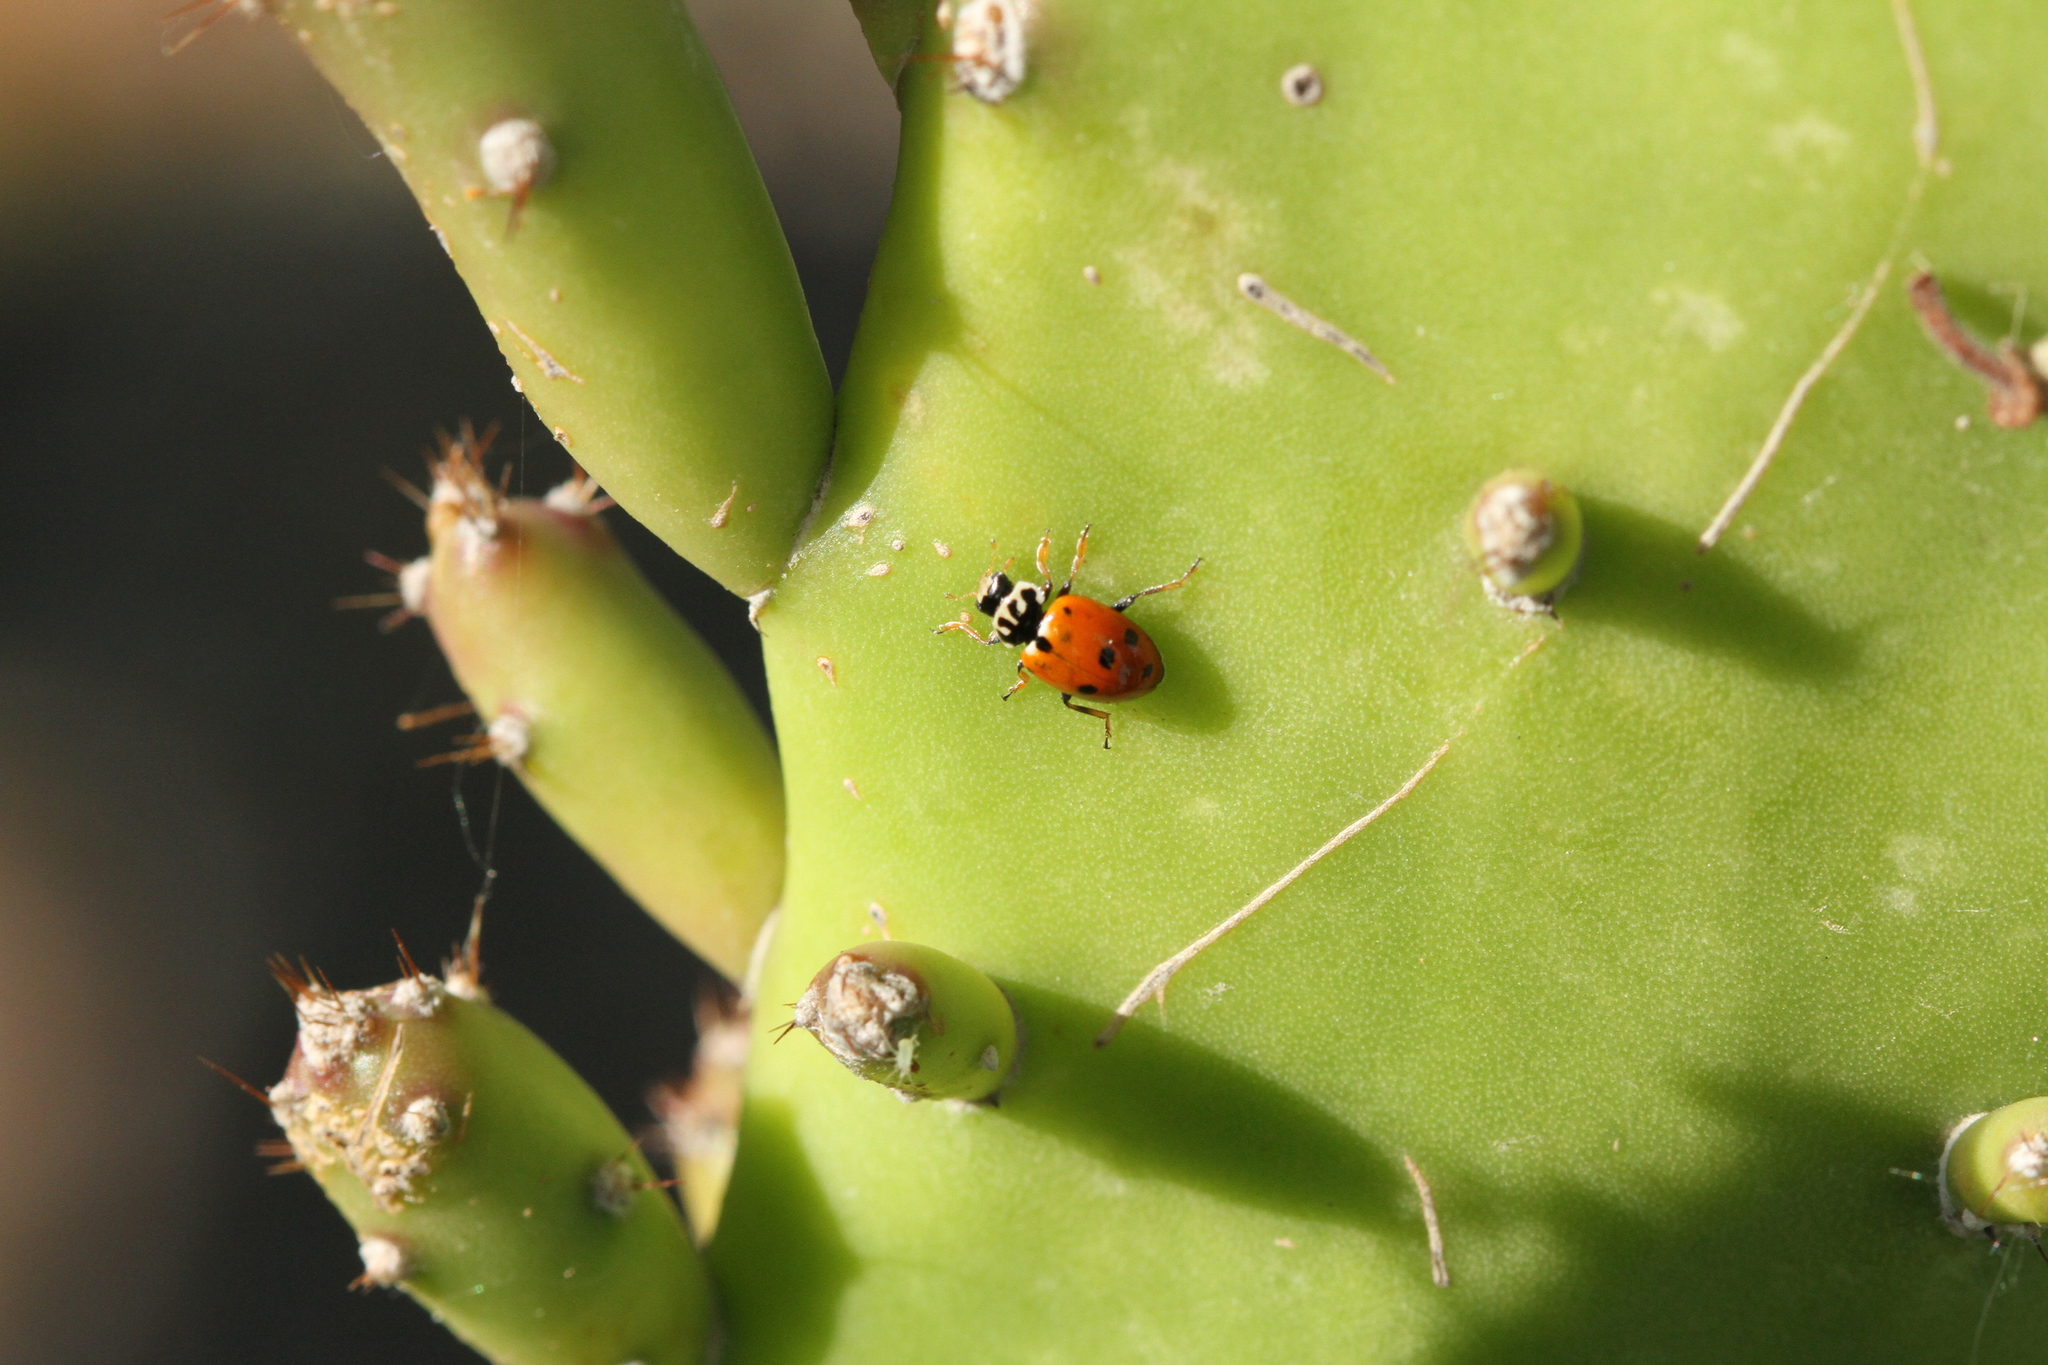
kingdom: Animalia
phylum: Arthropoda
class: Insecta
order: Coleoptera
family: Coccinellidae
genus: Hippodamia
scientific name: Hippodamia variegata
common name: Ladybird beetle
